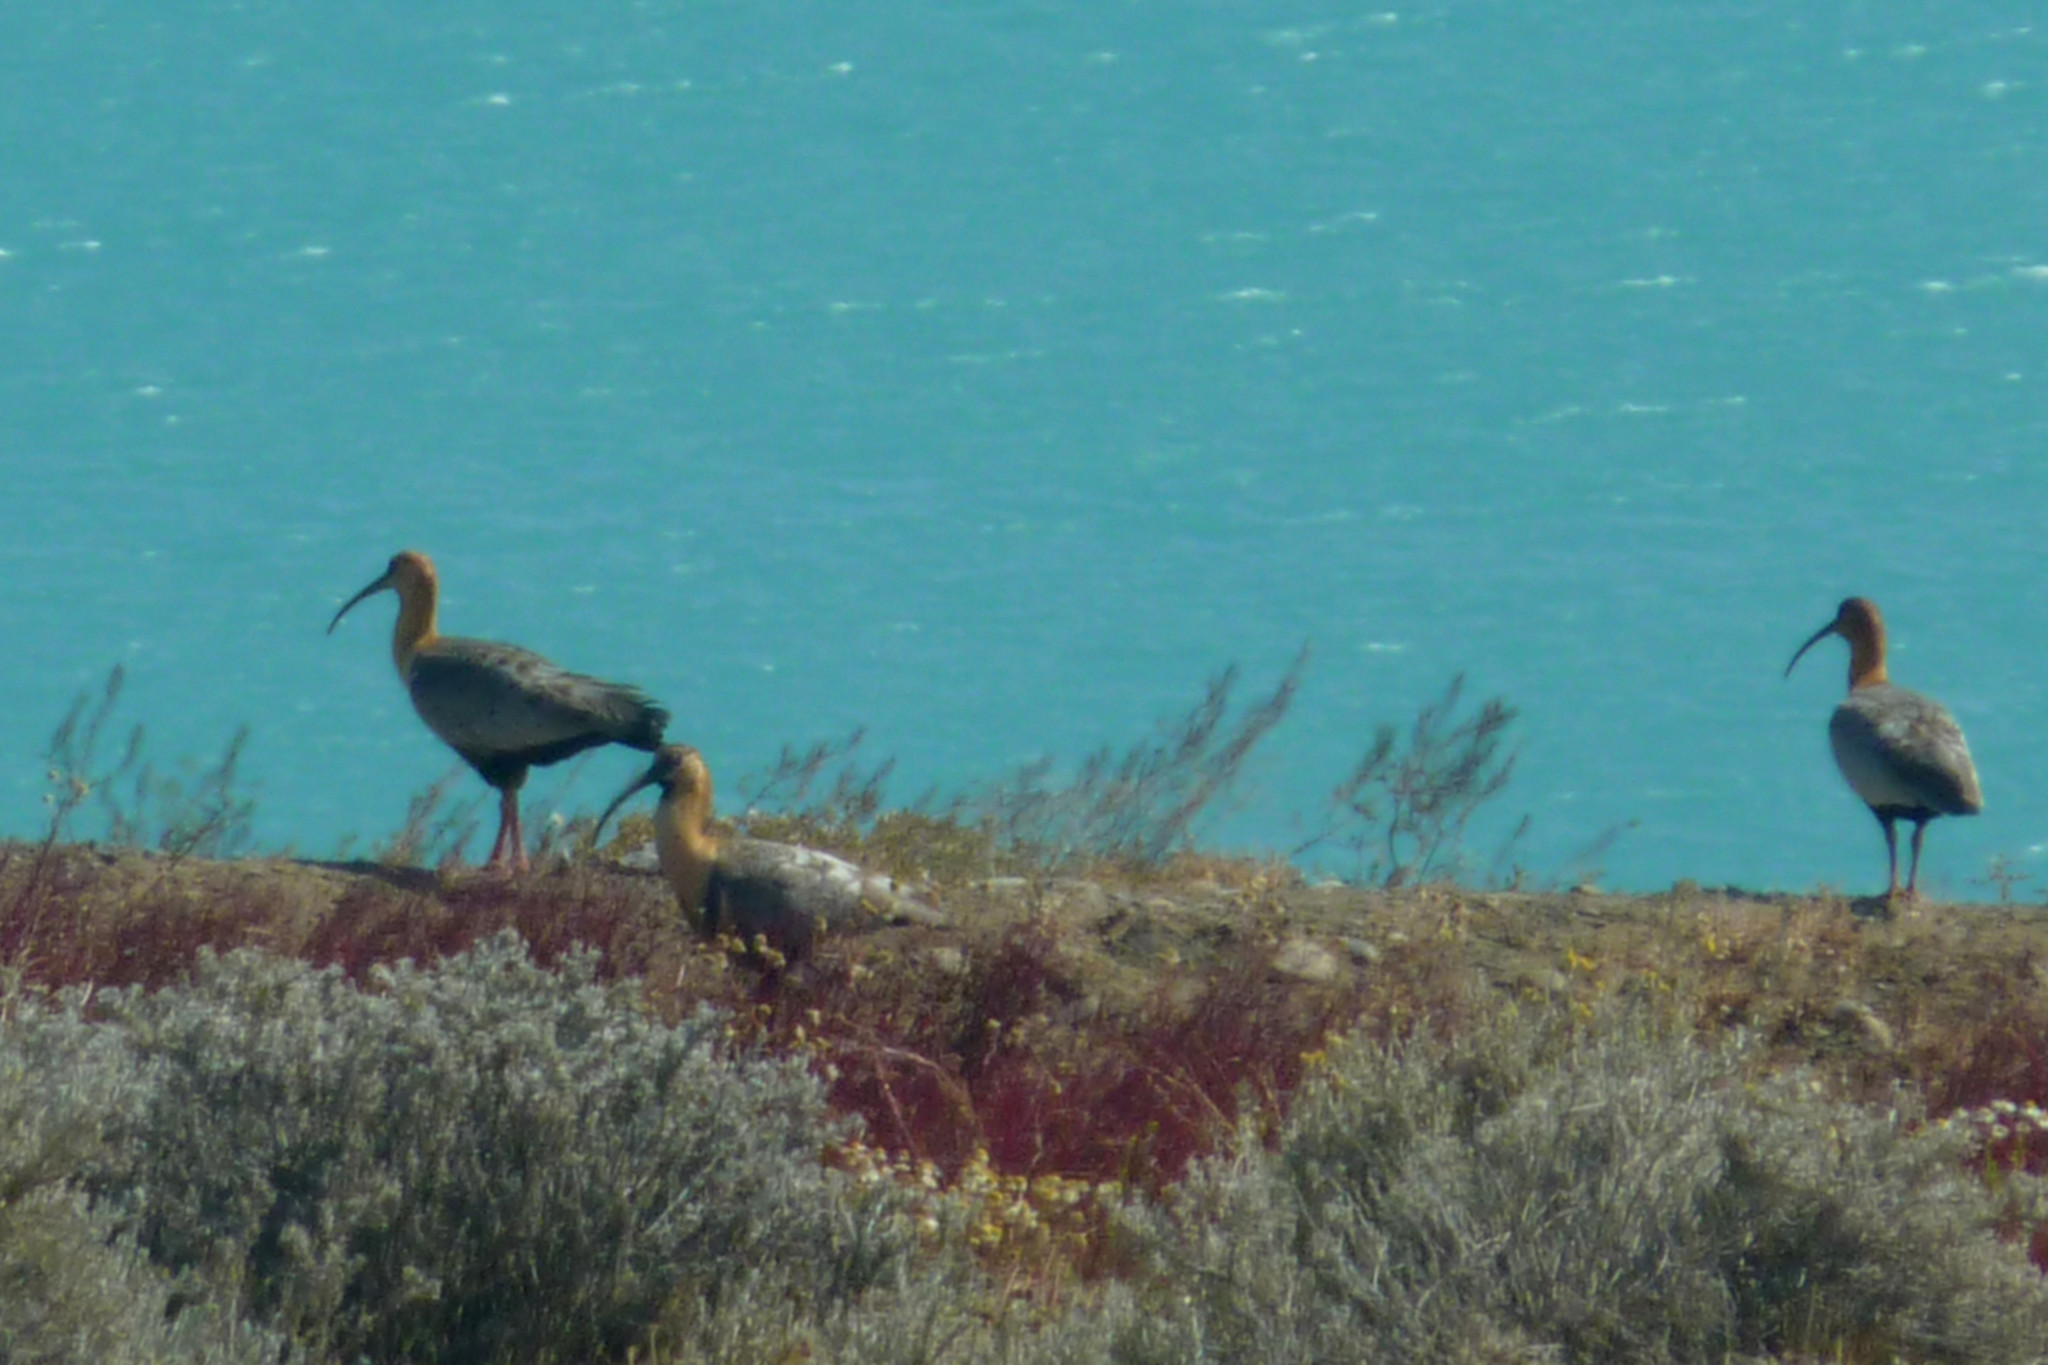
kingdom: Animalia
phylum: Chordata
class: Aves
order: Pelecaniformes
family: Threskiornithidae
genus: Theristicus
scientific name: Theristicus melanopis
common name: Black-faced ibis
